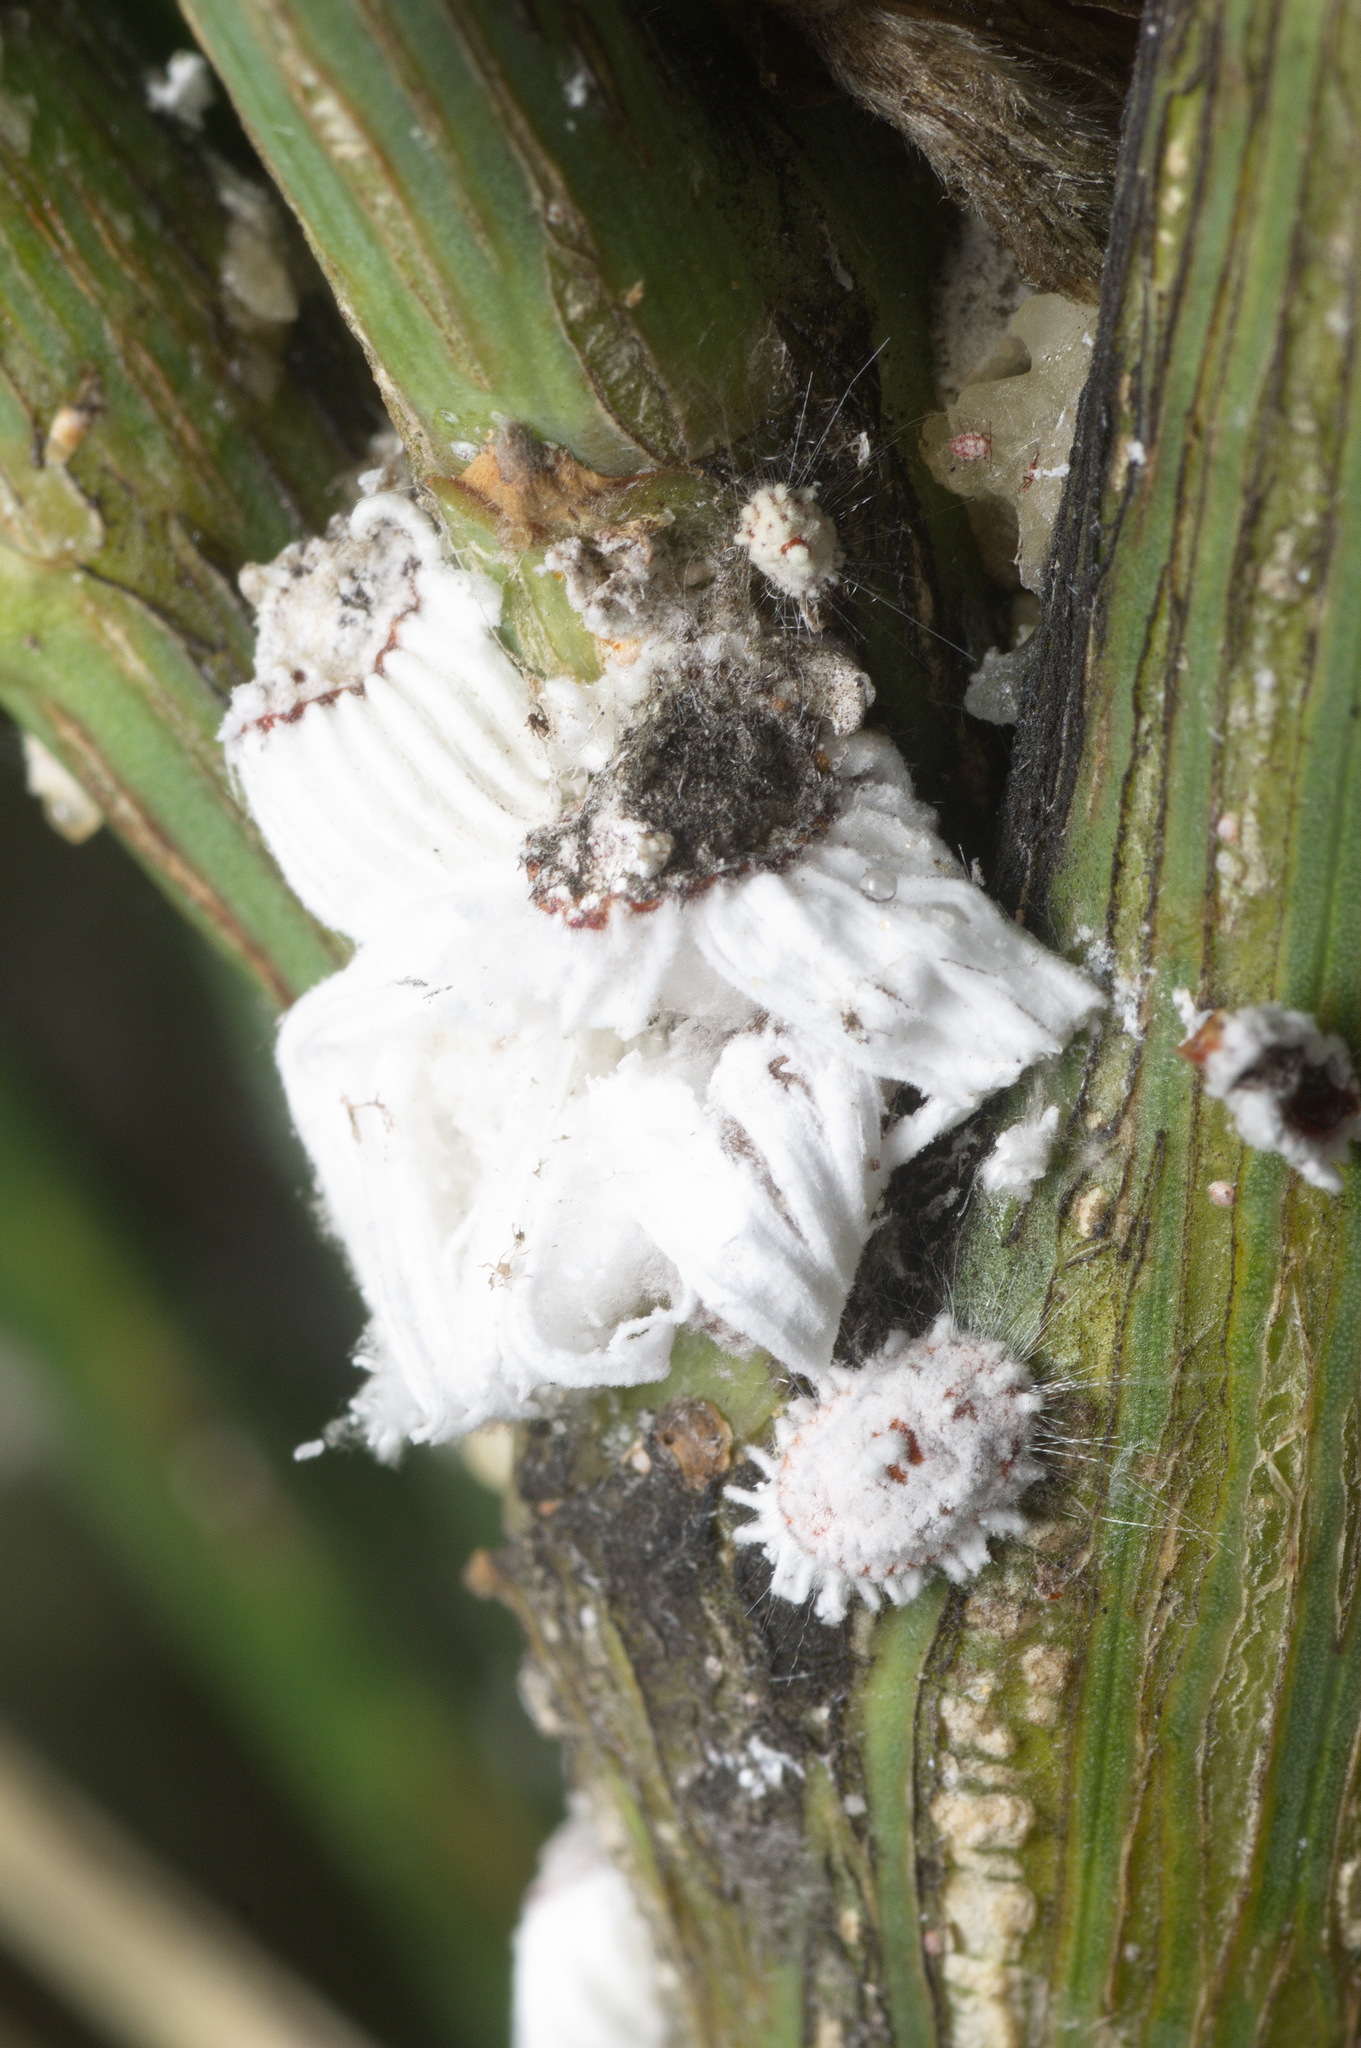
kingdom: Animalia
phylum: Arthropoda
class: Insecta
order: Hemiptera
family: Margarodidae
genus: Icerya
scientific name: Icerya purchasi
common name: Cottony cushion scale
